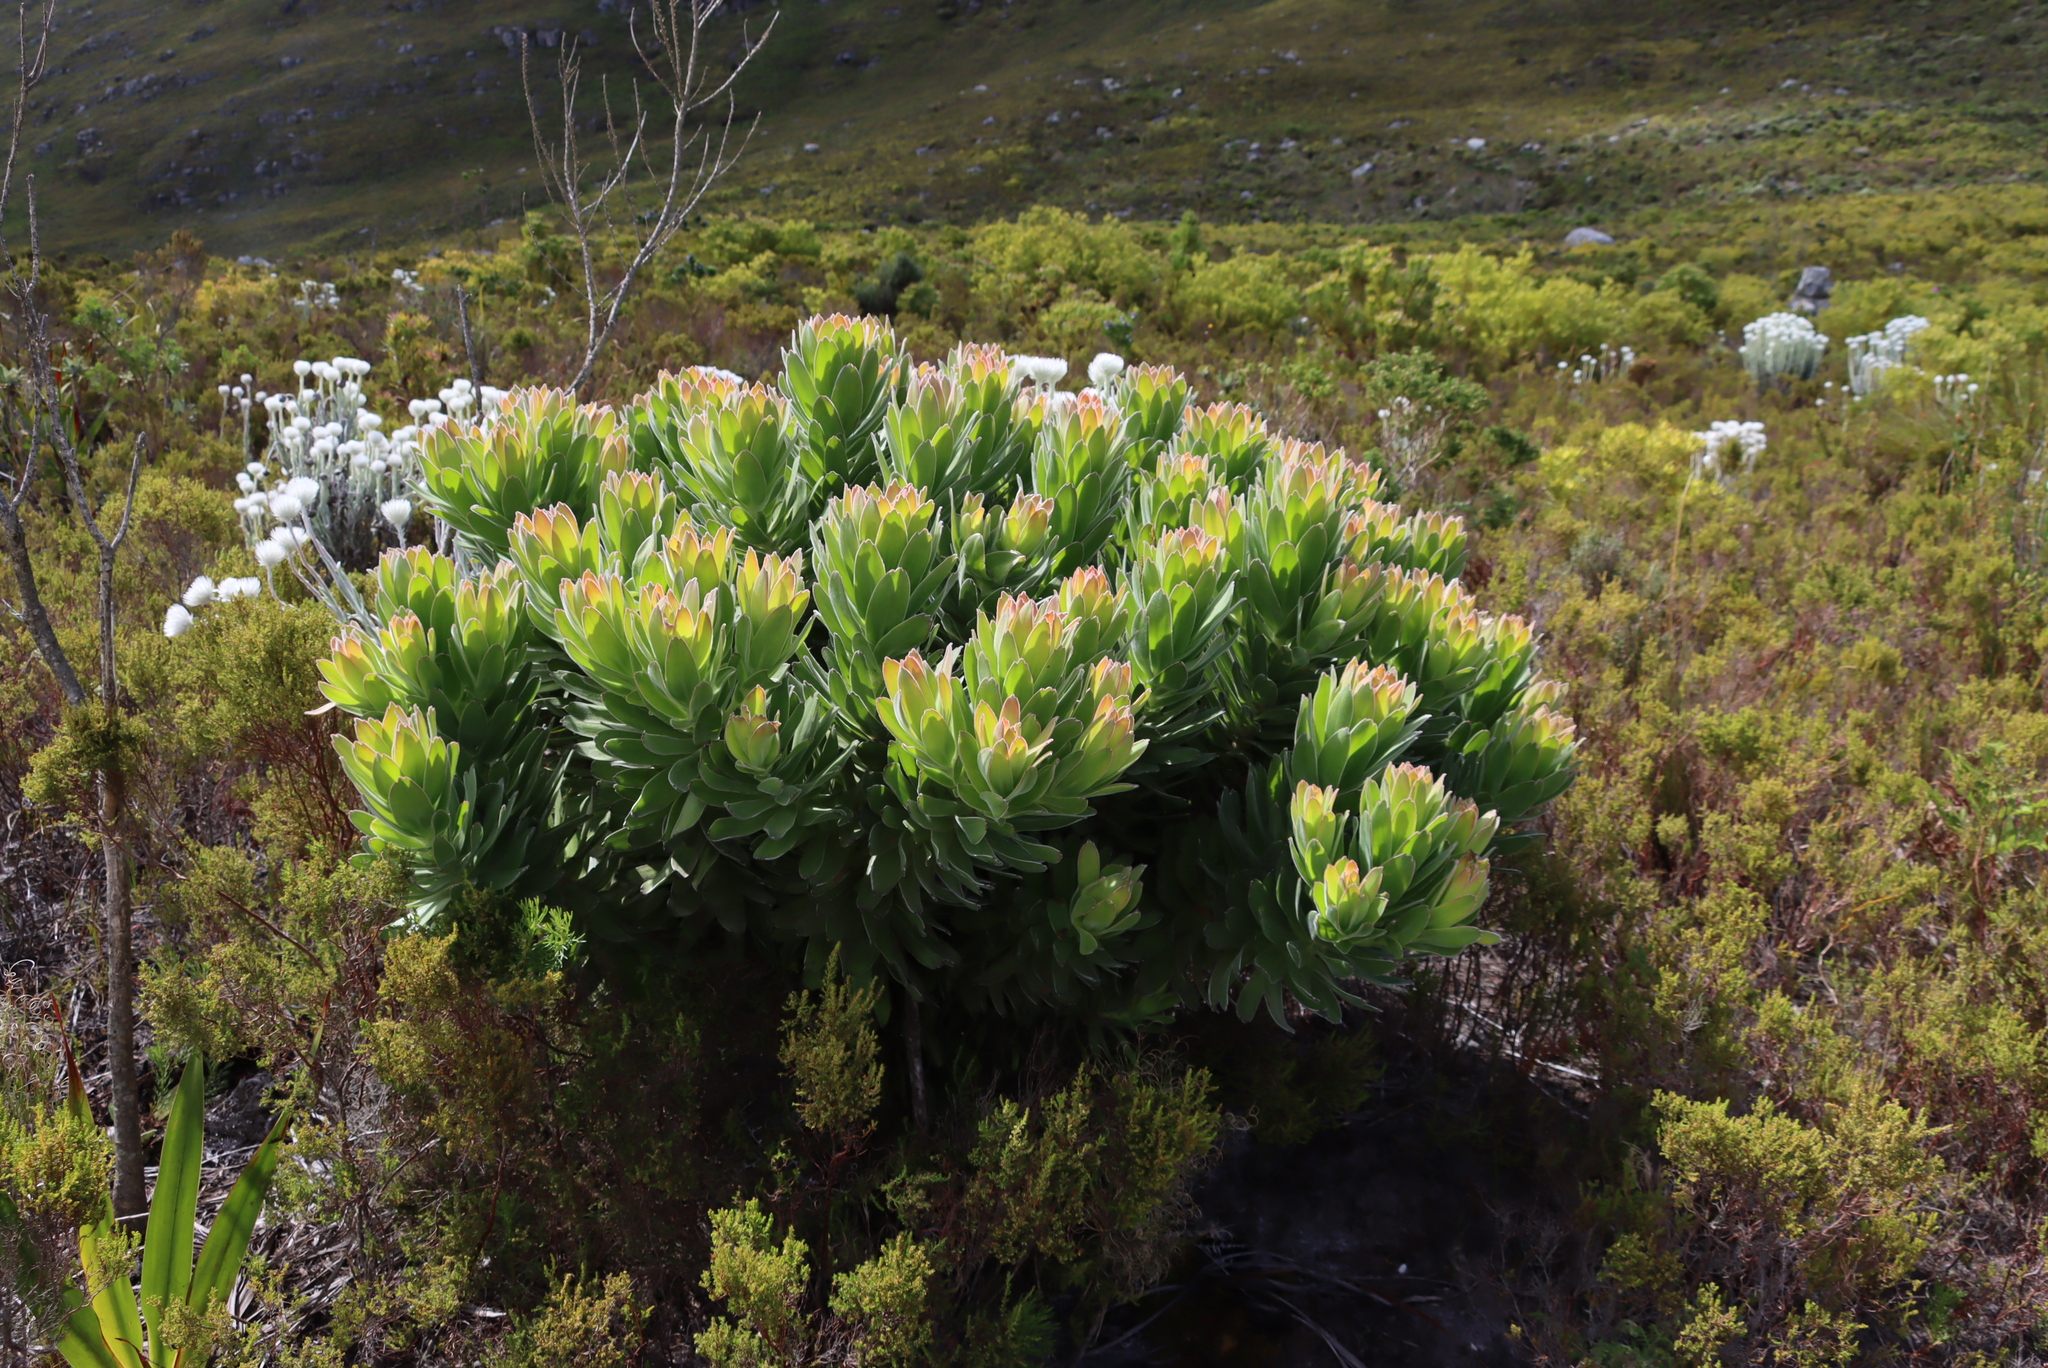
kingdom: Plantae
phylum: Tracheophyta
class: Magnoliopsida
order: Proteales
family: Proteaceae
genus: Mimetes
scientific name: Mimetes fimbriifolius
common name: Fringed bottlebrush
